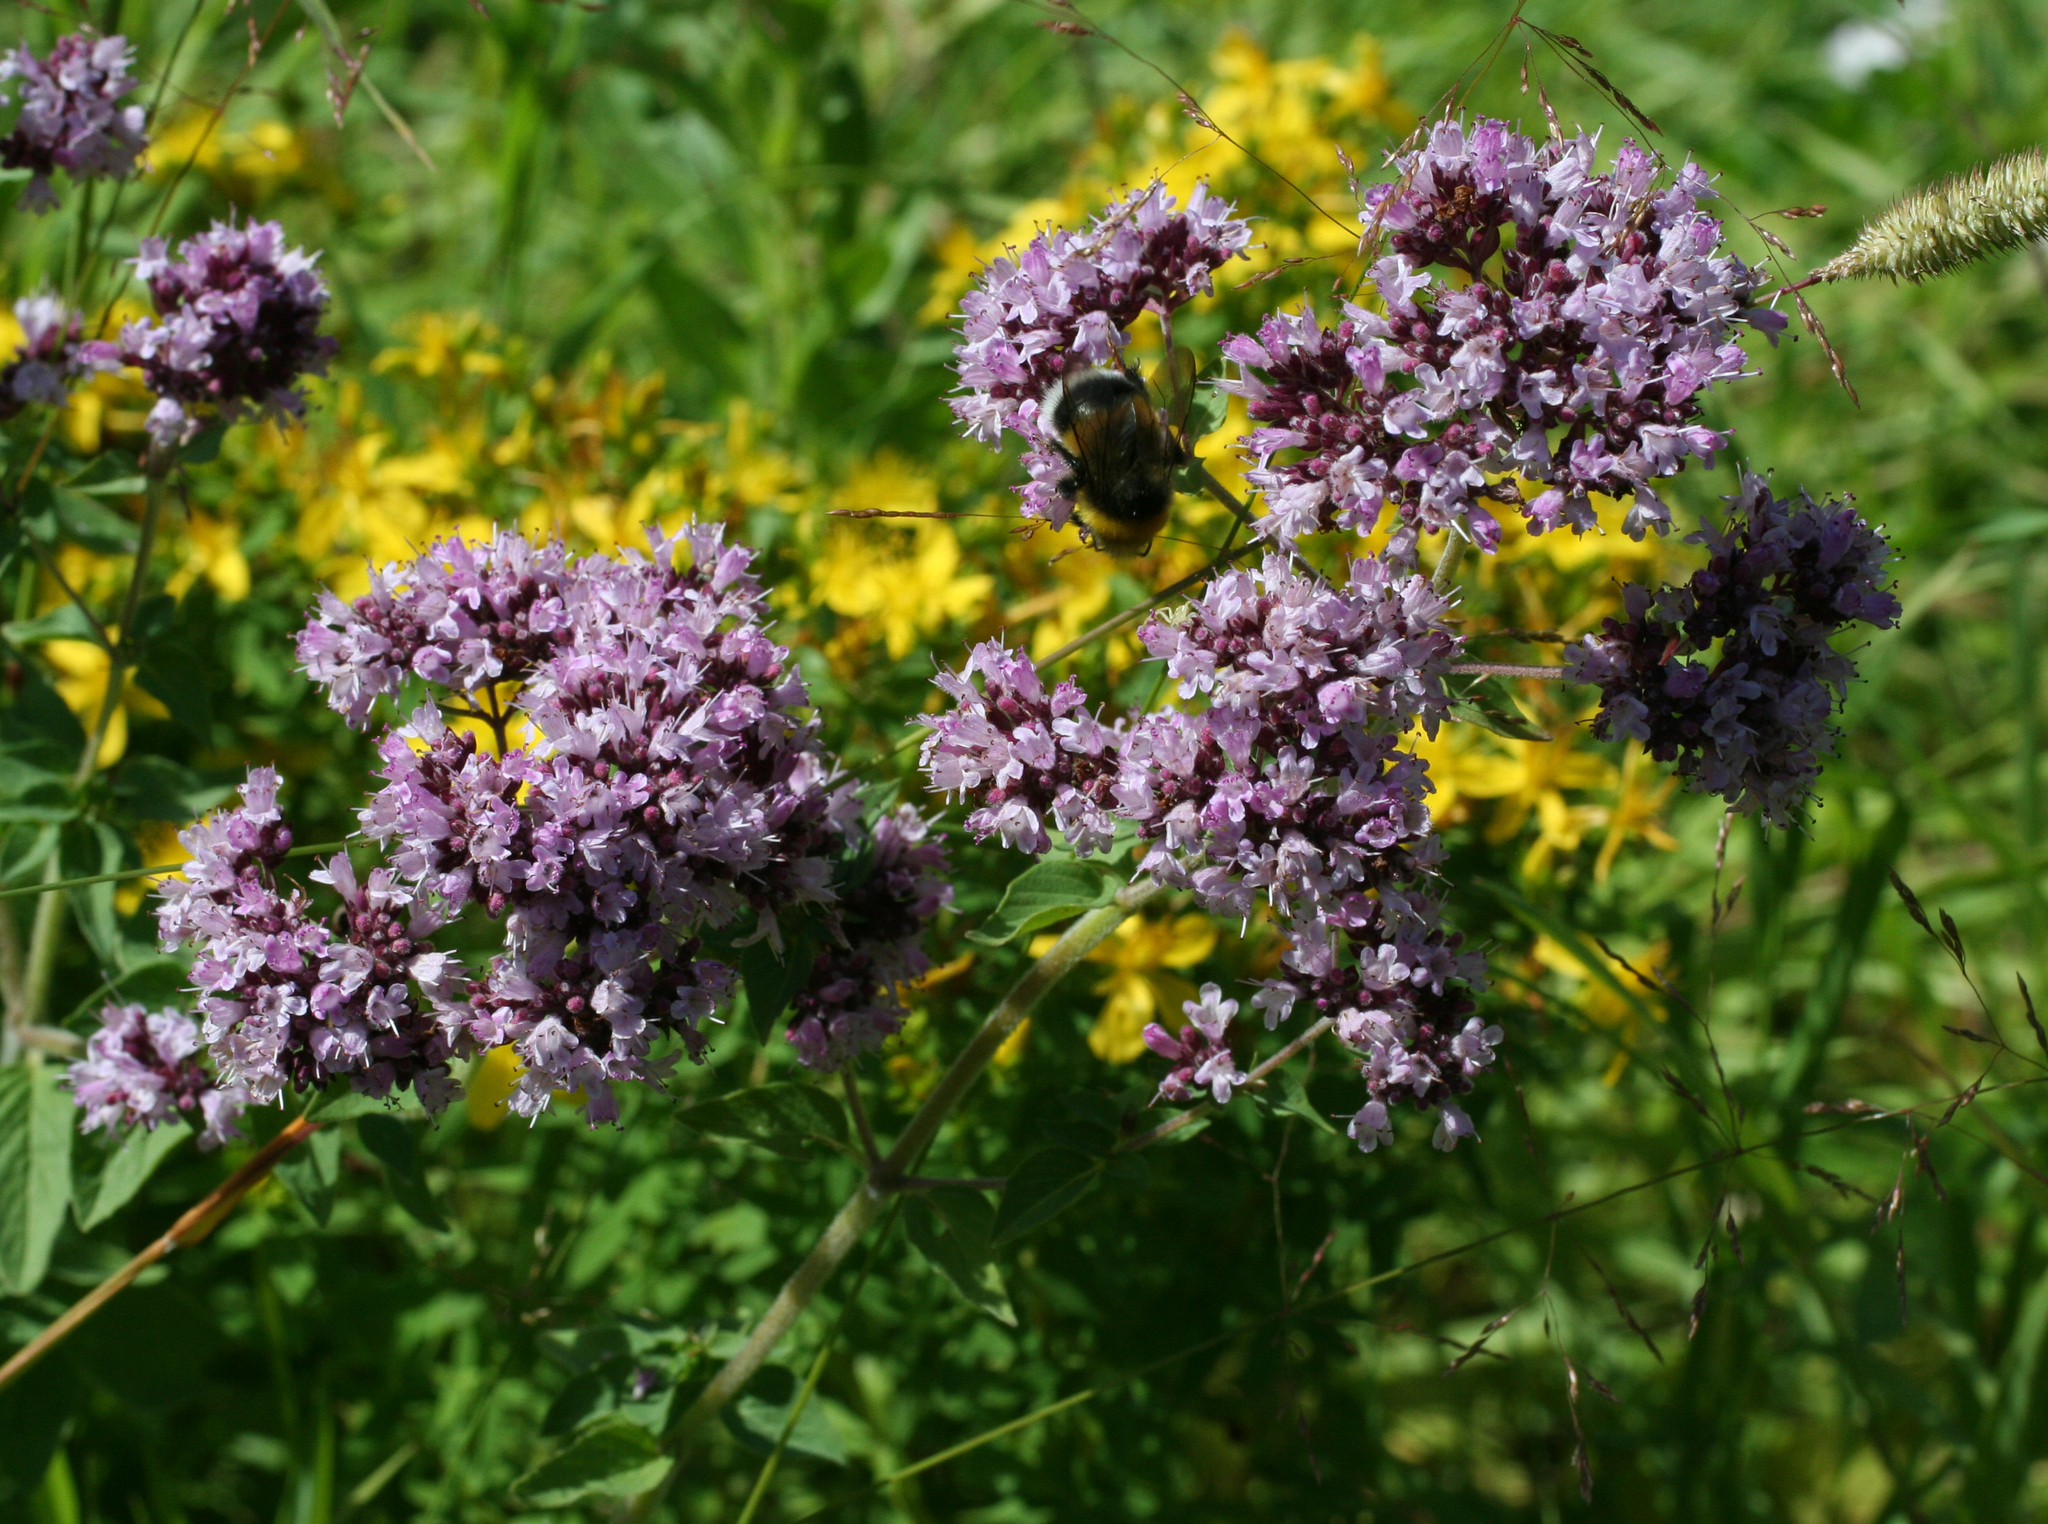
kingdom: Plantae
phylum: Tracheophyta
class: Magnoliopsida
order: Lamiales
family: Lamiaceae
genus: Origanum
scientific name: Origanum vulgare
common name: Wild marjoram
